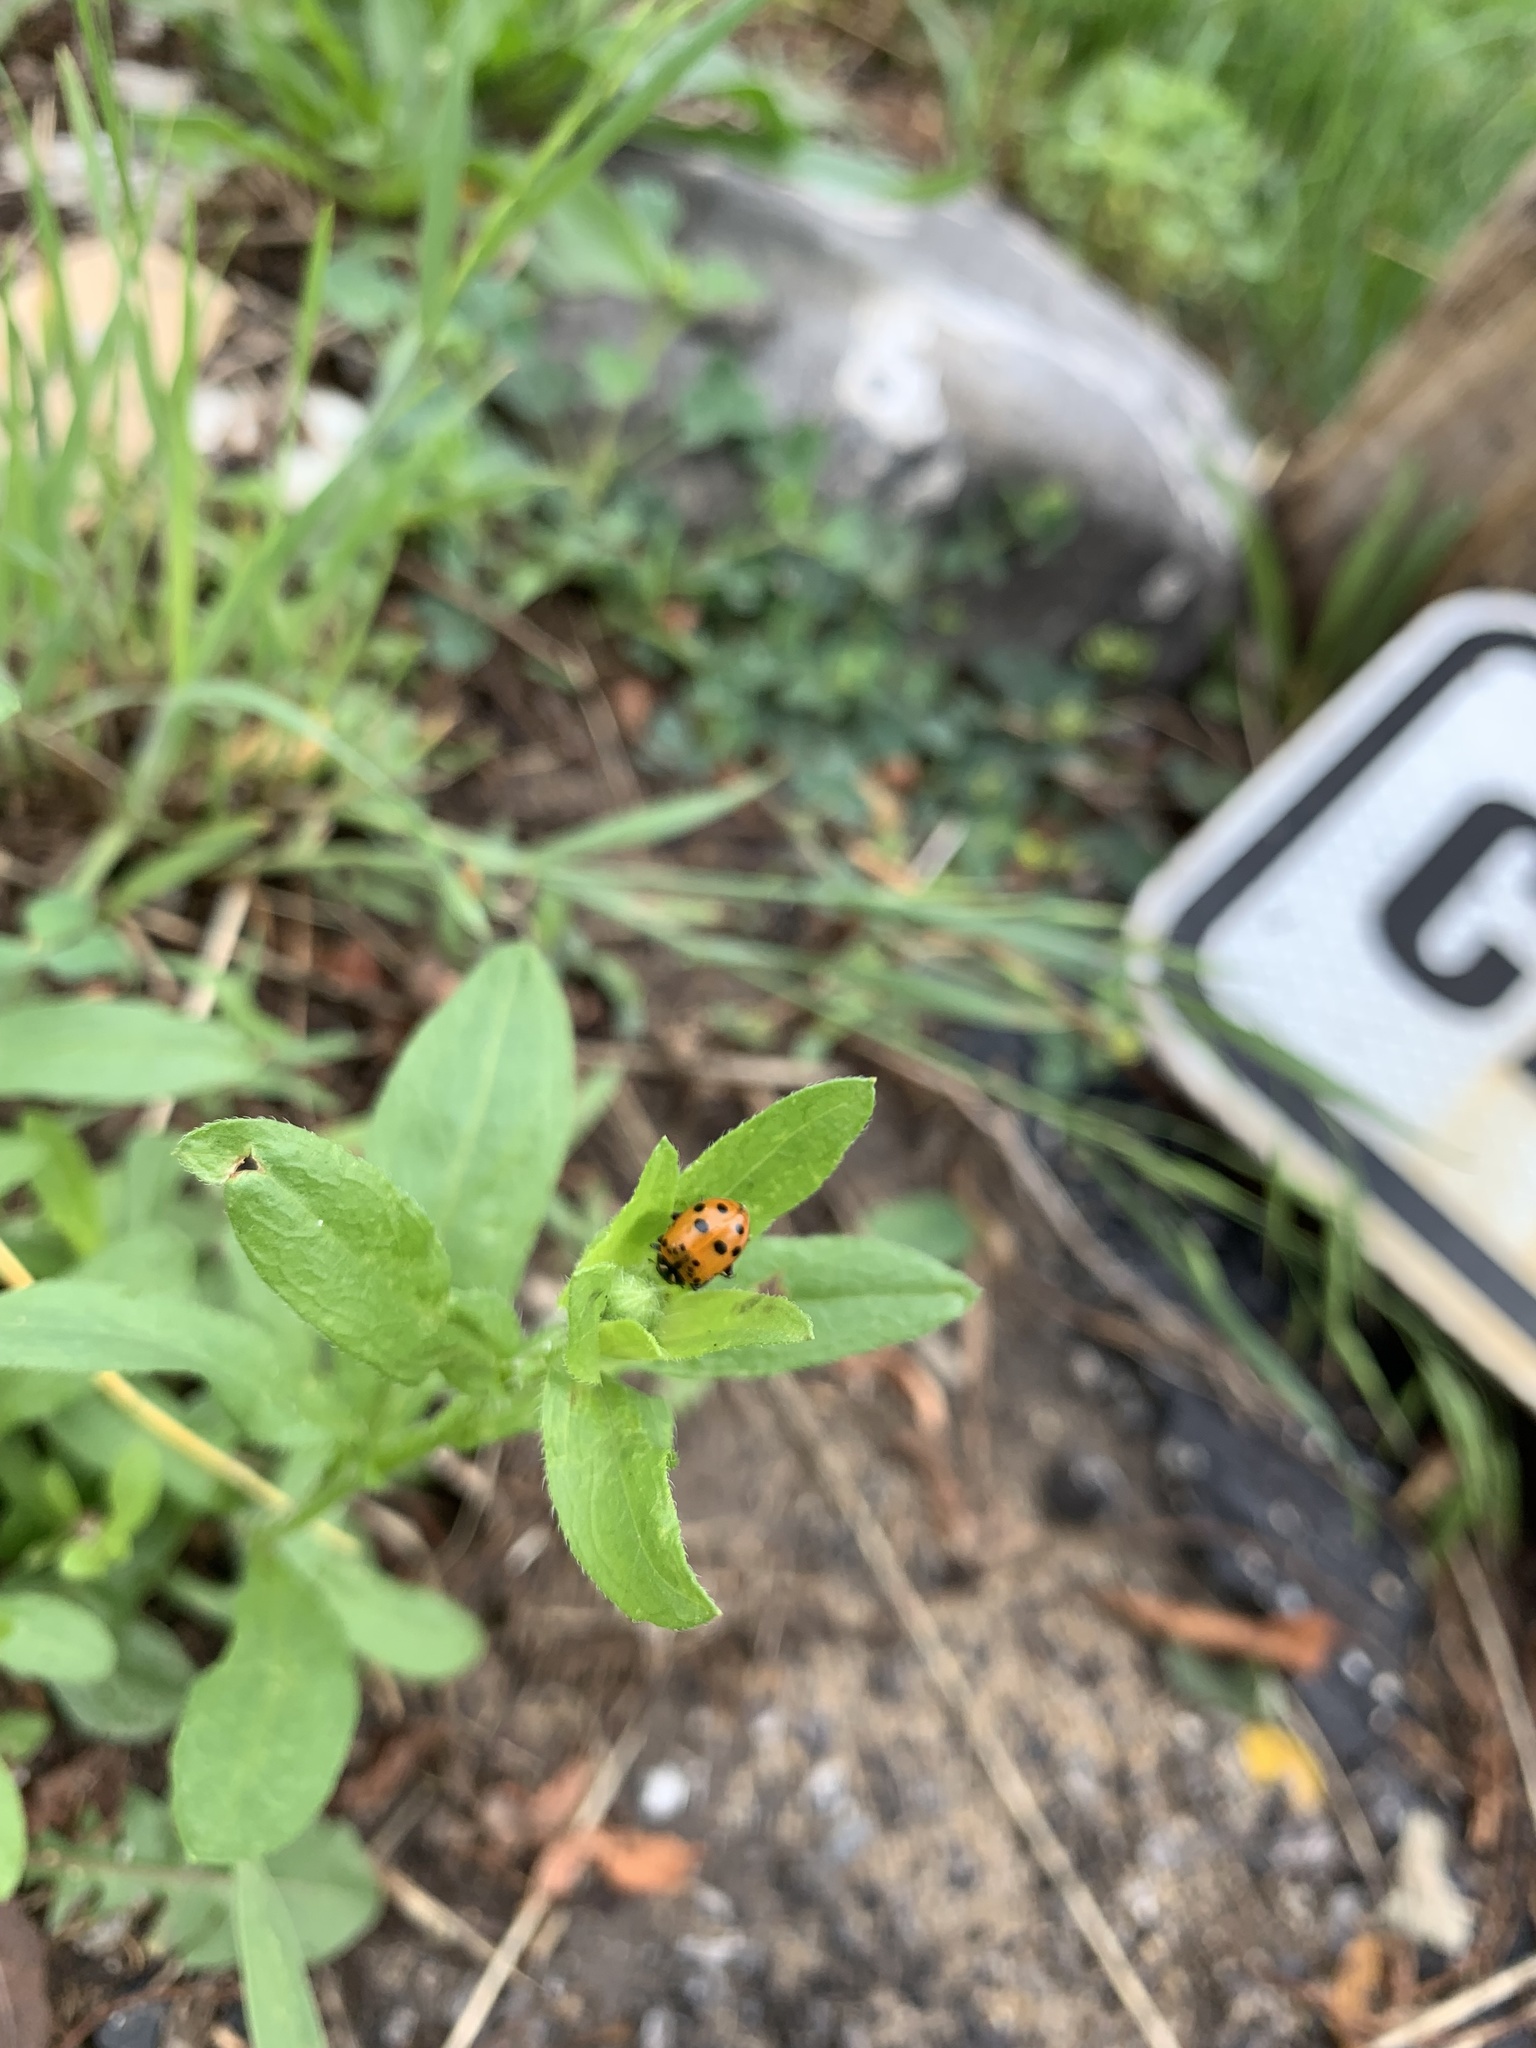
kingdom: Animalia
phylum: Arthropoda
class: Insecta
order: Coleoptera
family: Coccinellidae
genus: Hippodamia
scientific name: Hippodamia convergens
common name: Convergent lady beetle
